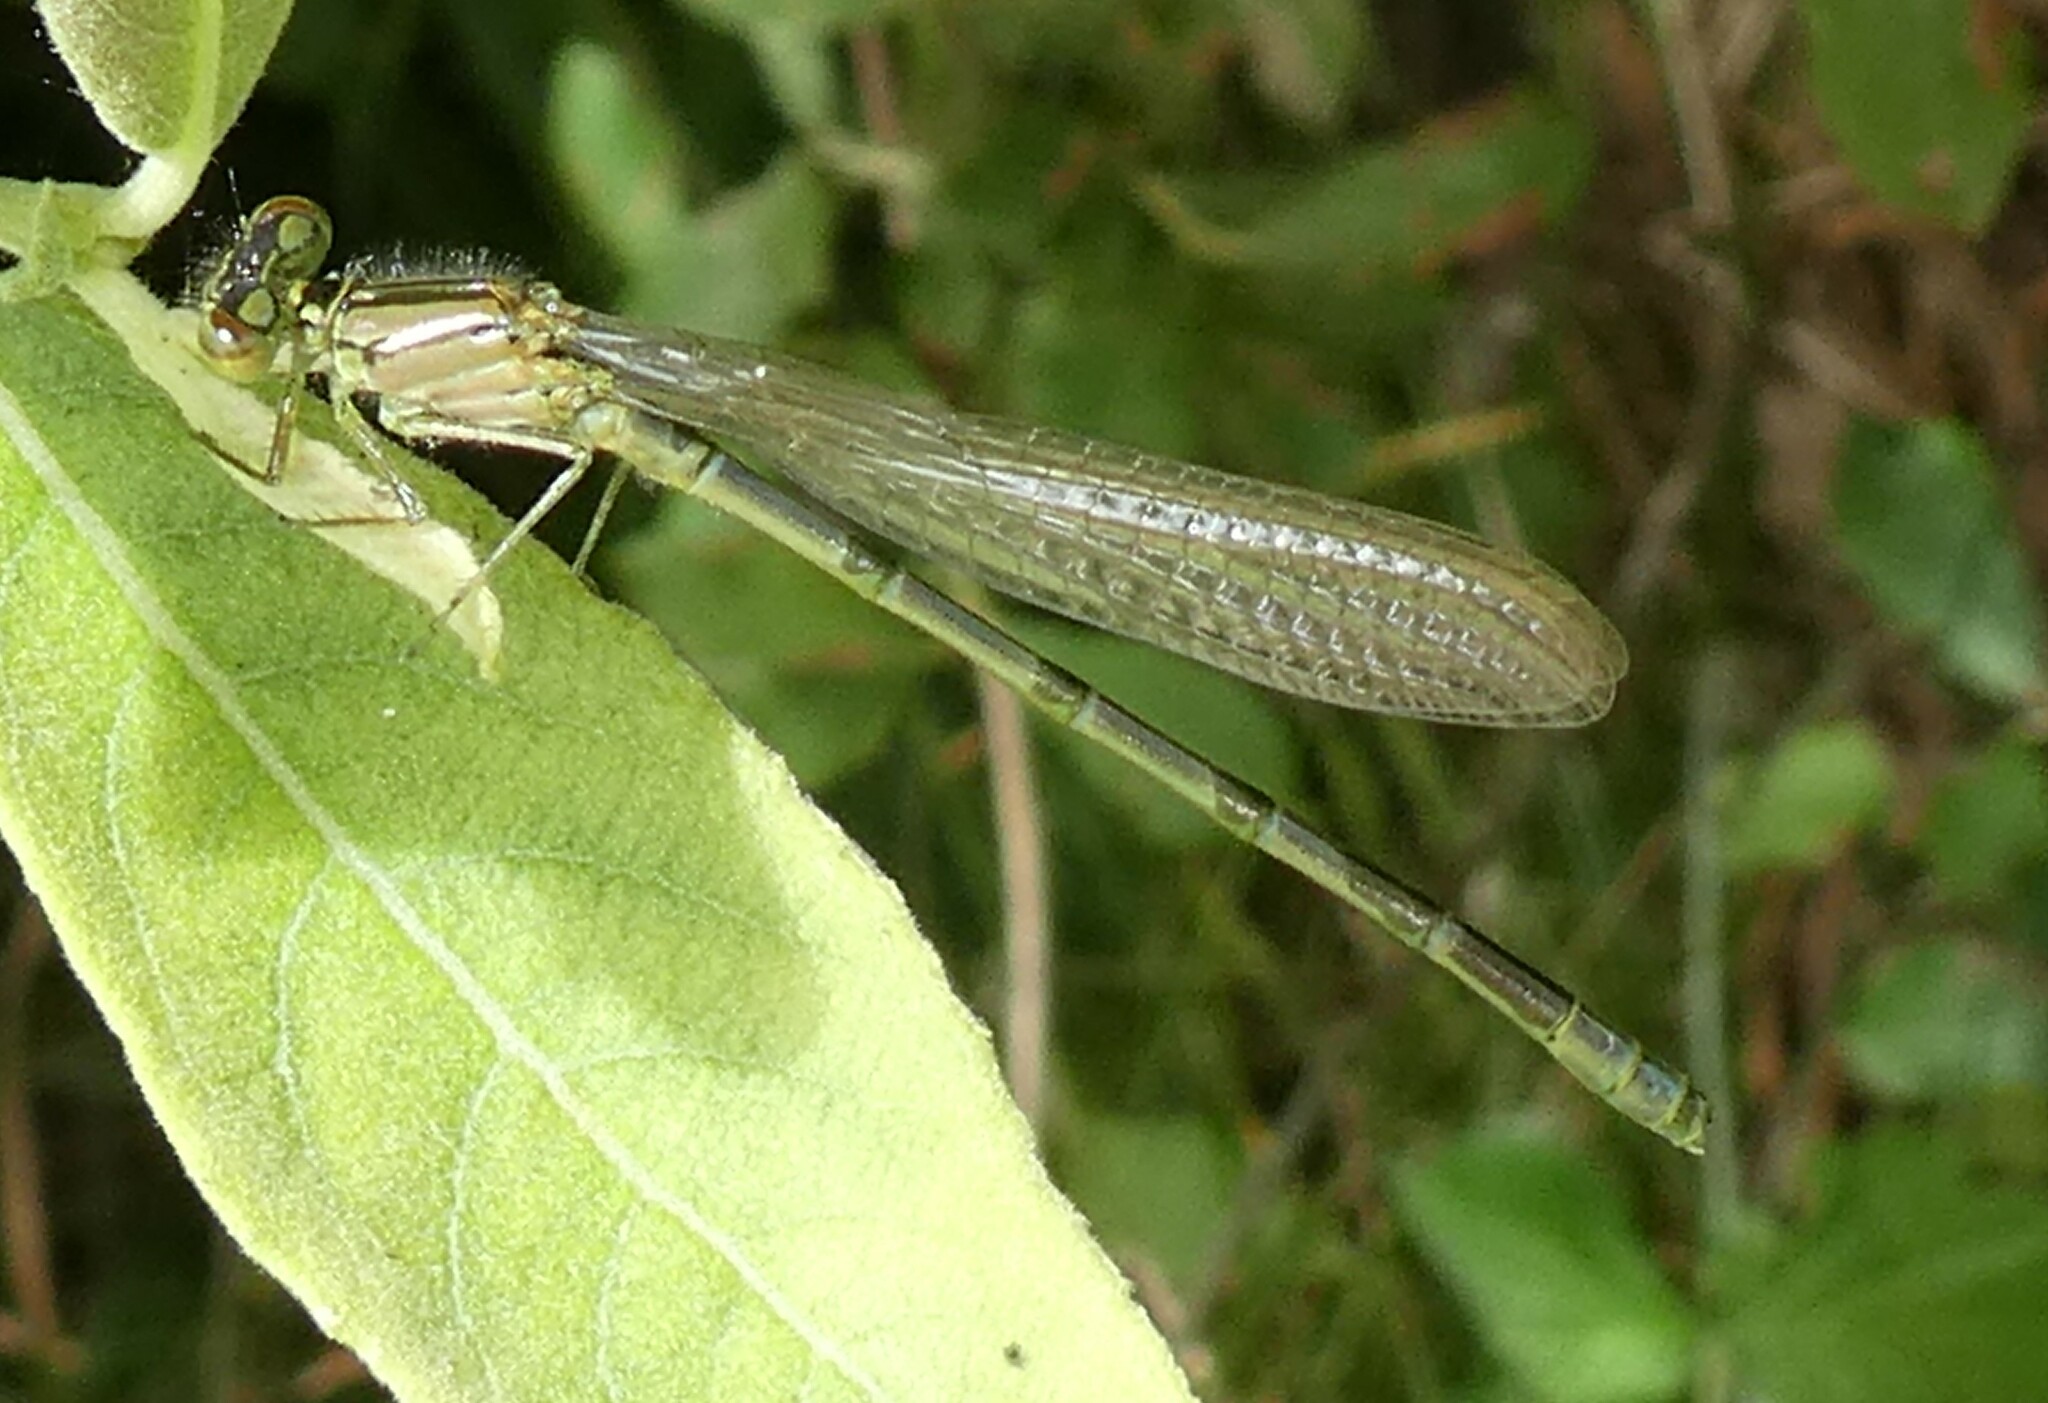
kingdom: Animalia
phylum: Arthropoda
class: Insecta
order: Odonata
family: Coenagrionidae
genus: Enallagma
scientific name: Enallagma cyathigerum
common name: Common blue damselfly
